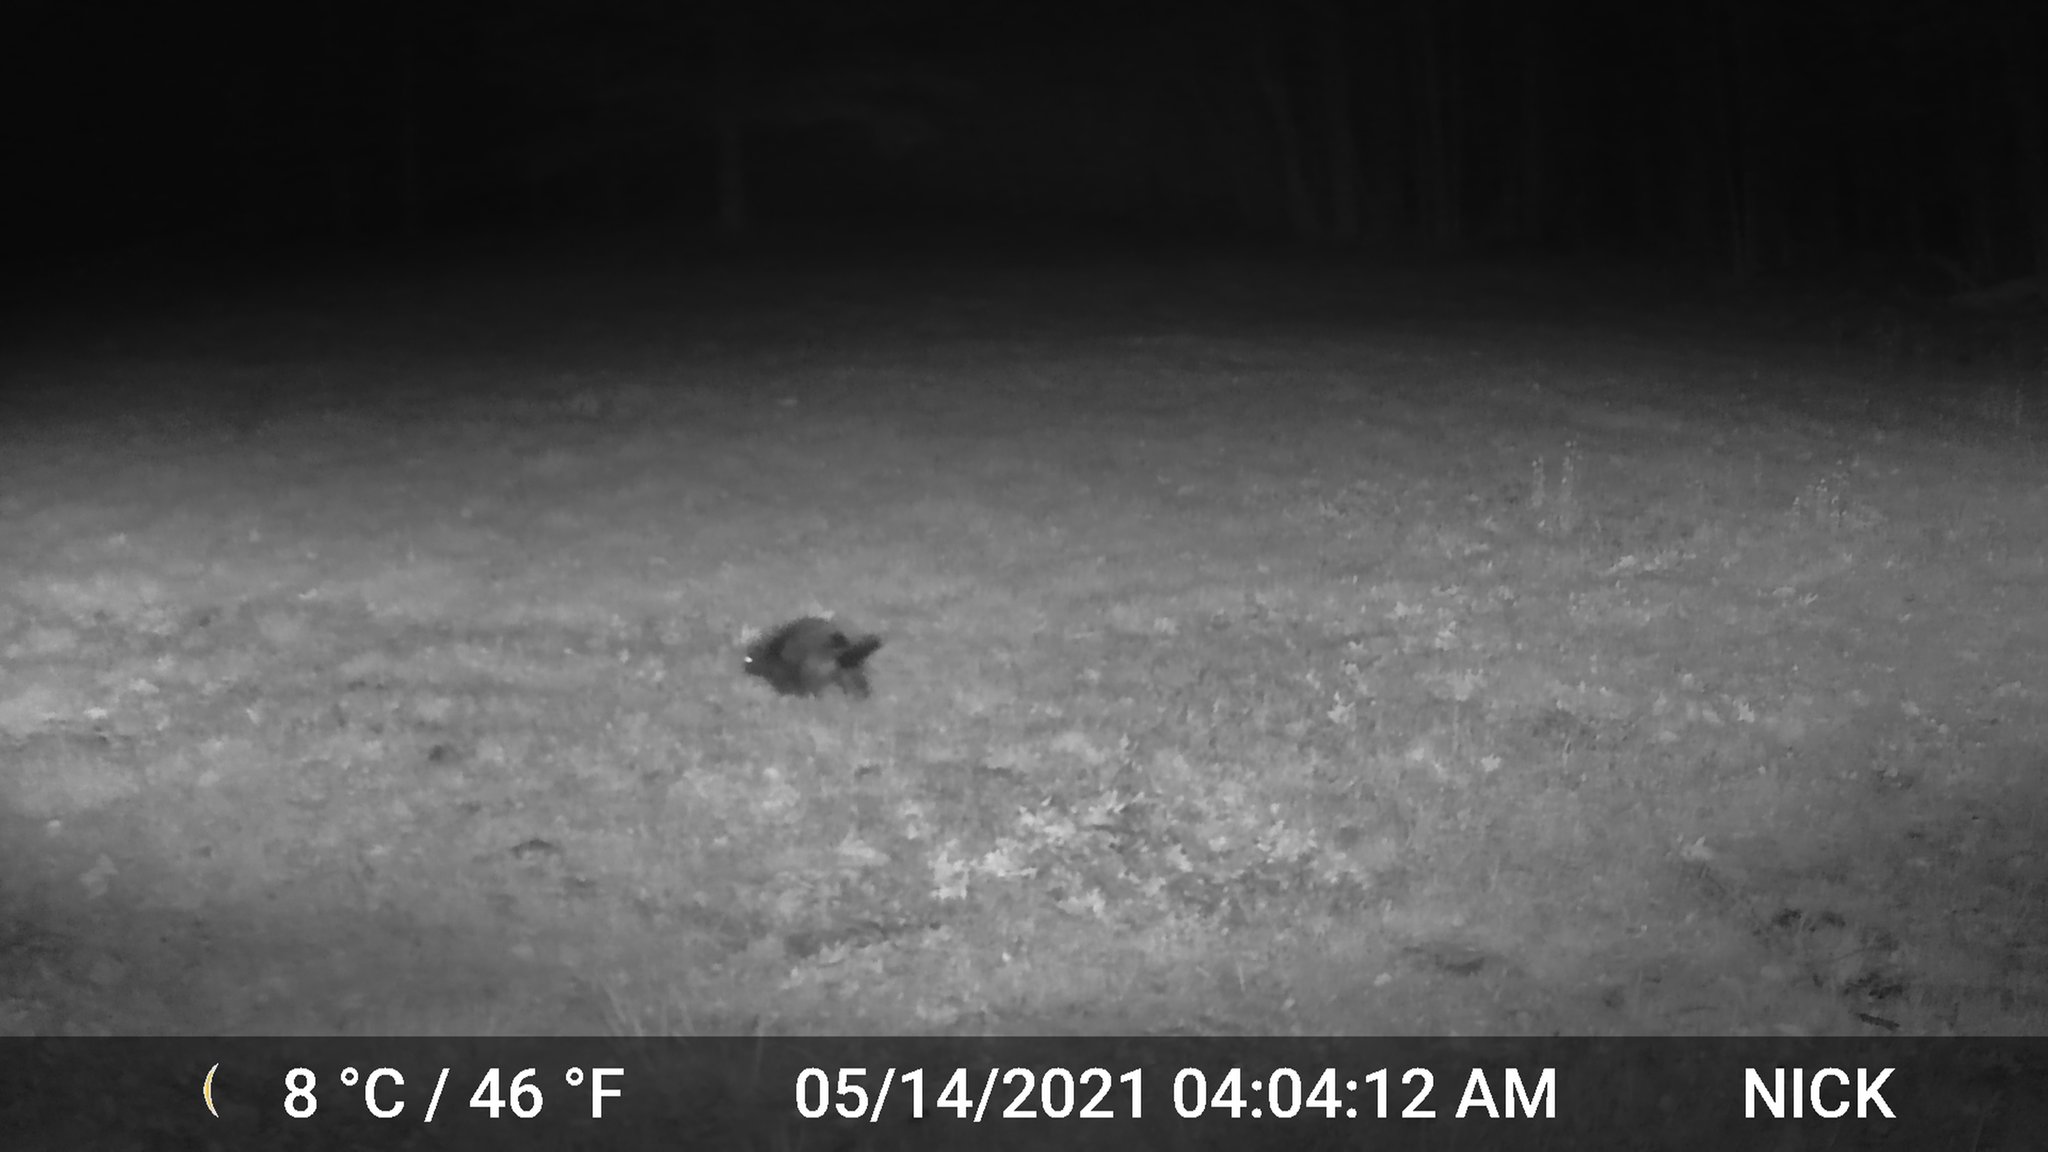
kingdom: Animalia
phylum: Chordata
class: Mammalia
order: Rodentia
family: Erethizontidae
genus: Erethizon
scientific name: Erethizon dorsatus
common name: North american porcupine
